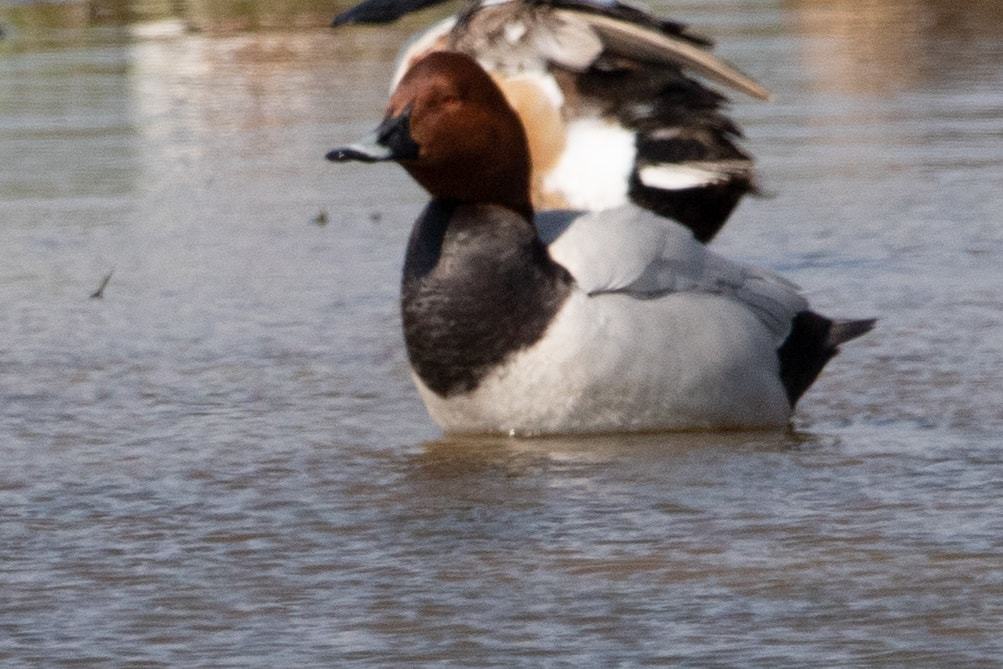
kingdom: Animalia
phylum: Chordata
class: Aves
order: Anseriformes
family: Anatidae
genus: Aythya
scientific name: Aythya ferina
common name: Common pochard
